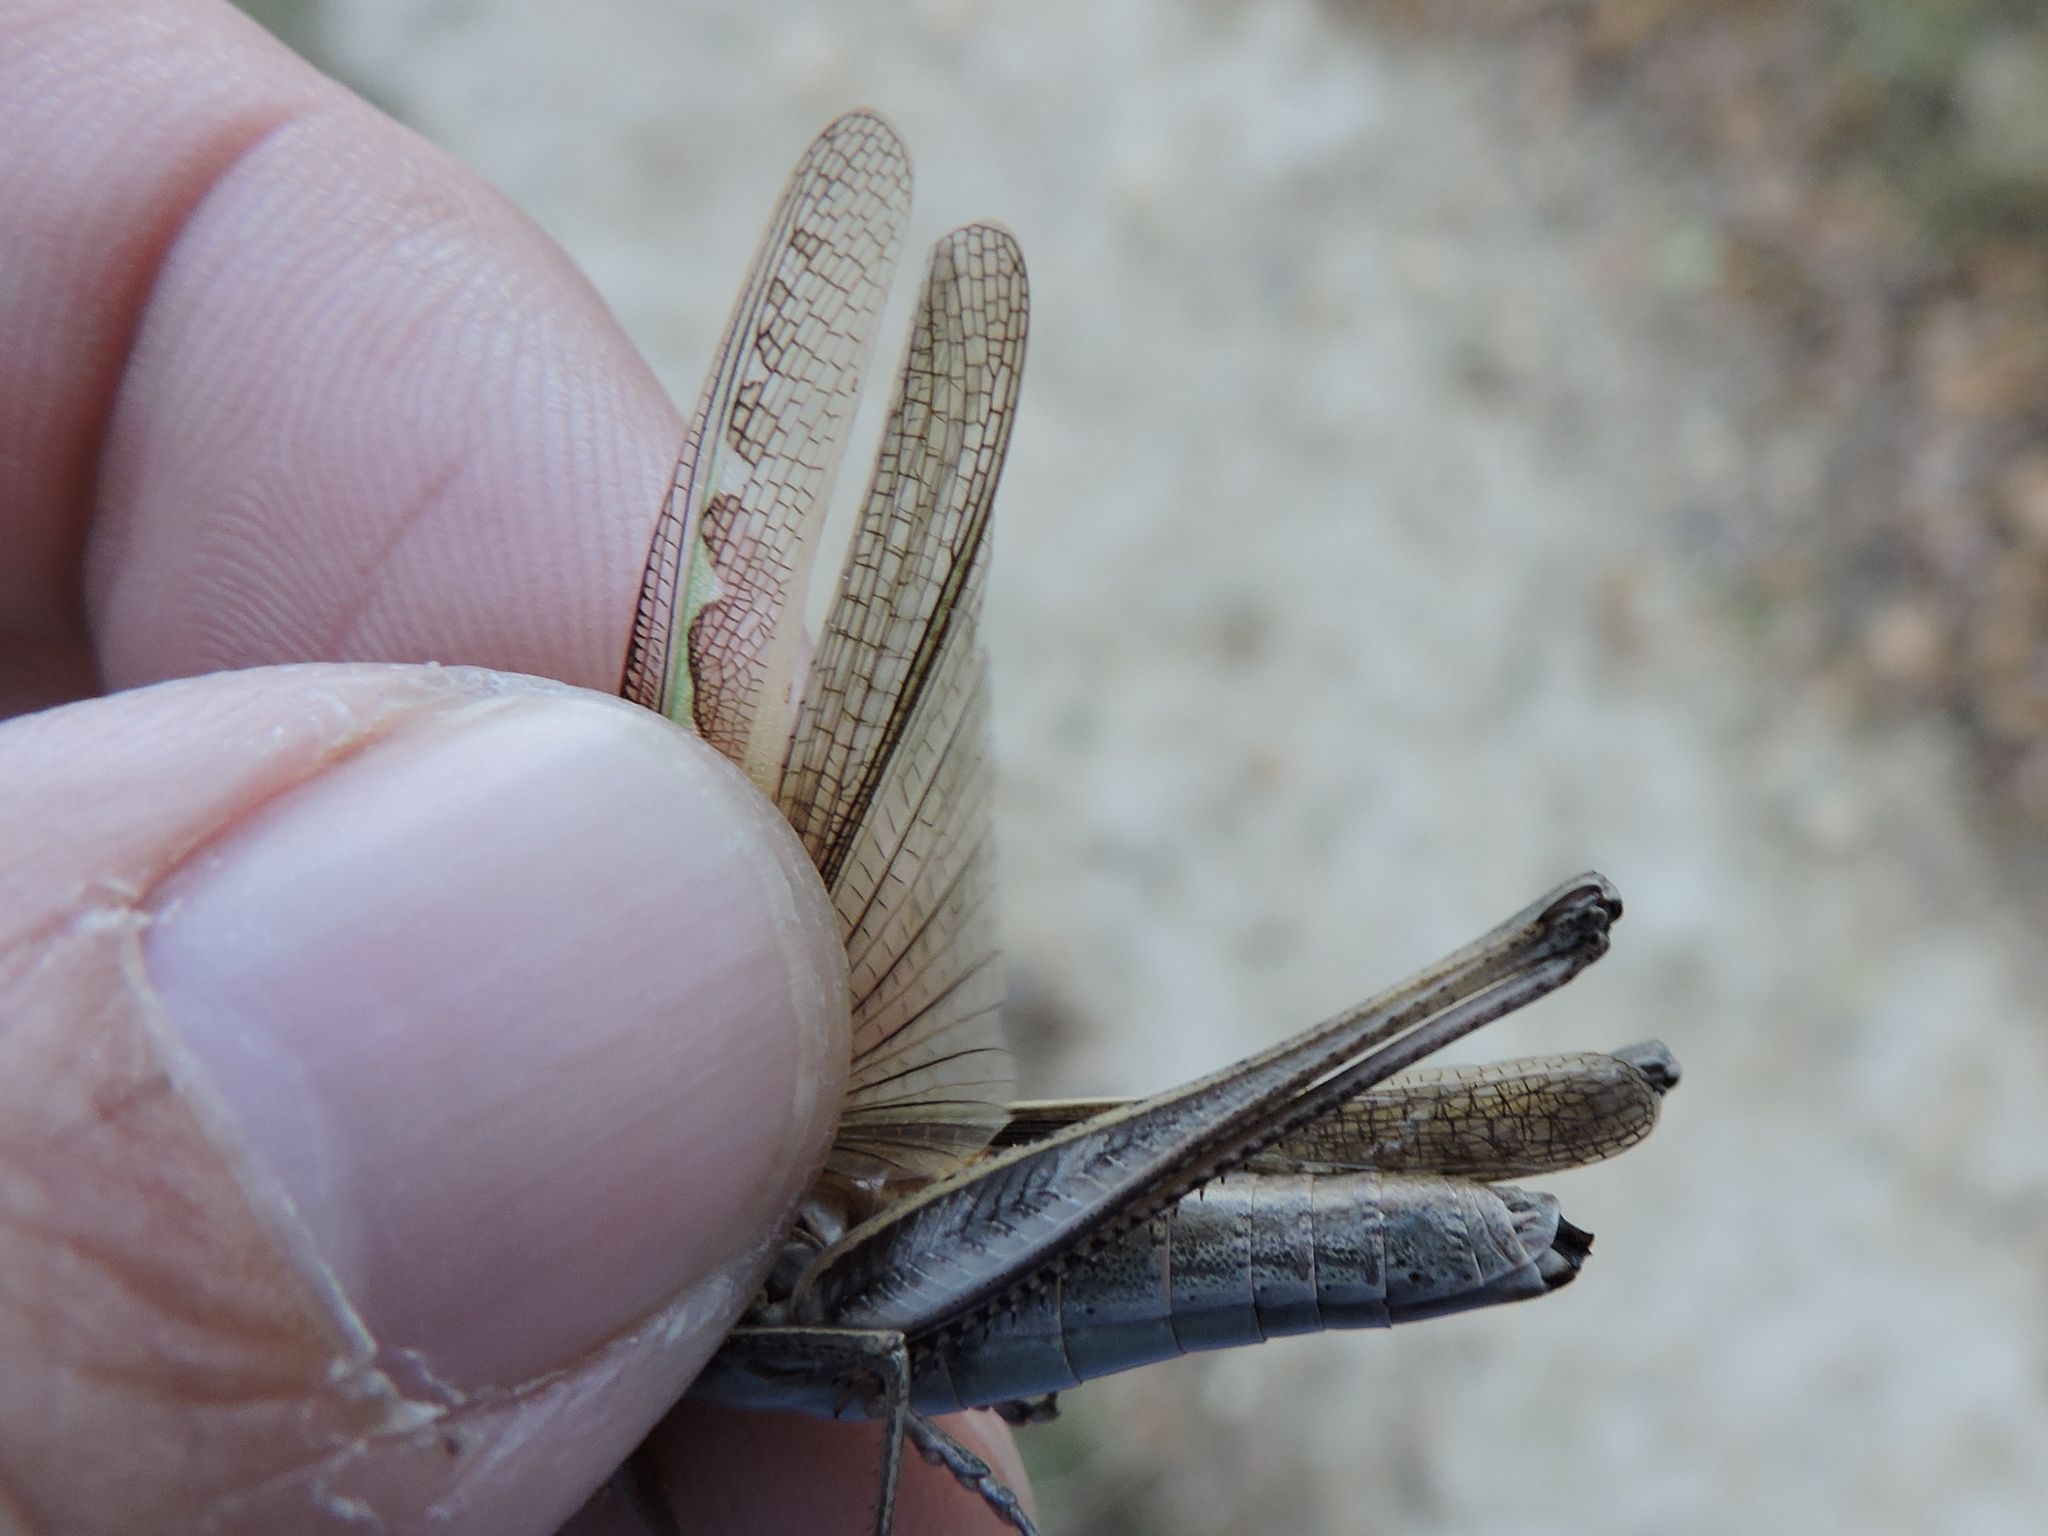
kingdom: Animalia
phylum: Arthropoda
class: Insecta
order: Orthoptera
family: Acrididae
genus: Syrbula
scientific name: Syrbula admirabilis
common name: Handsome grasshopper
